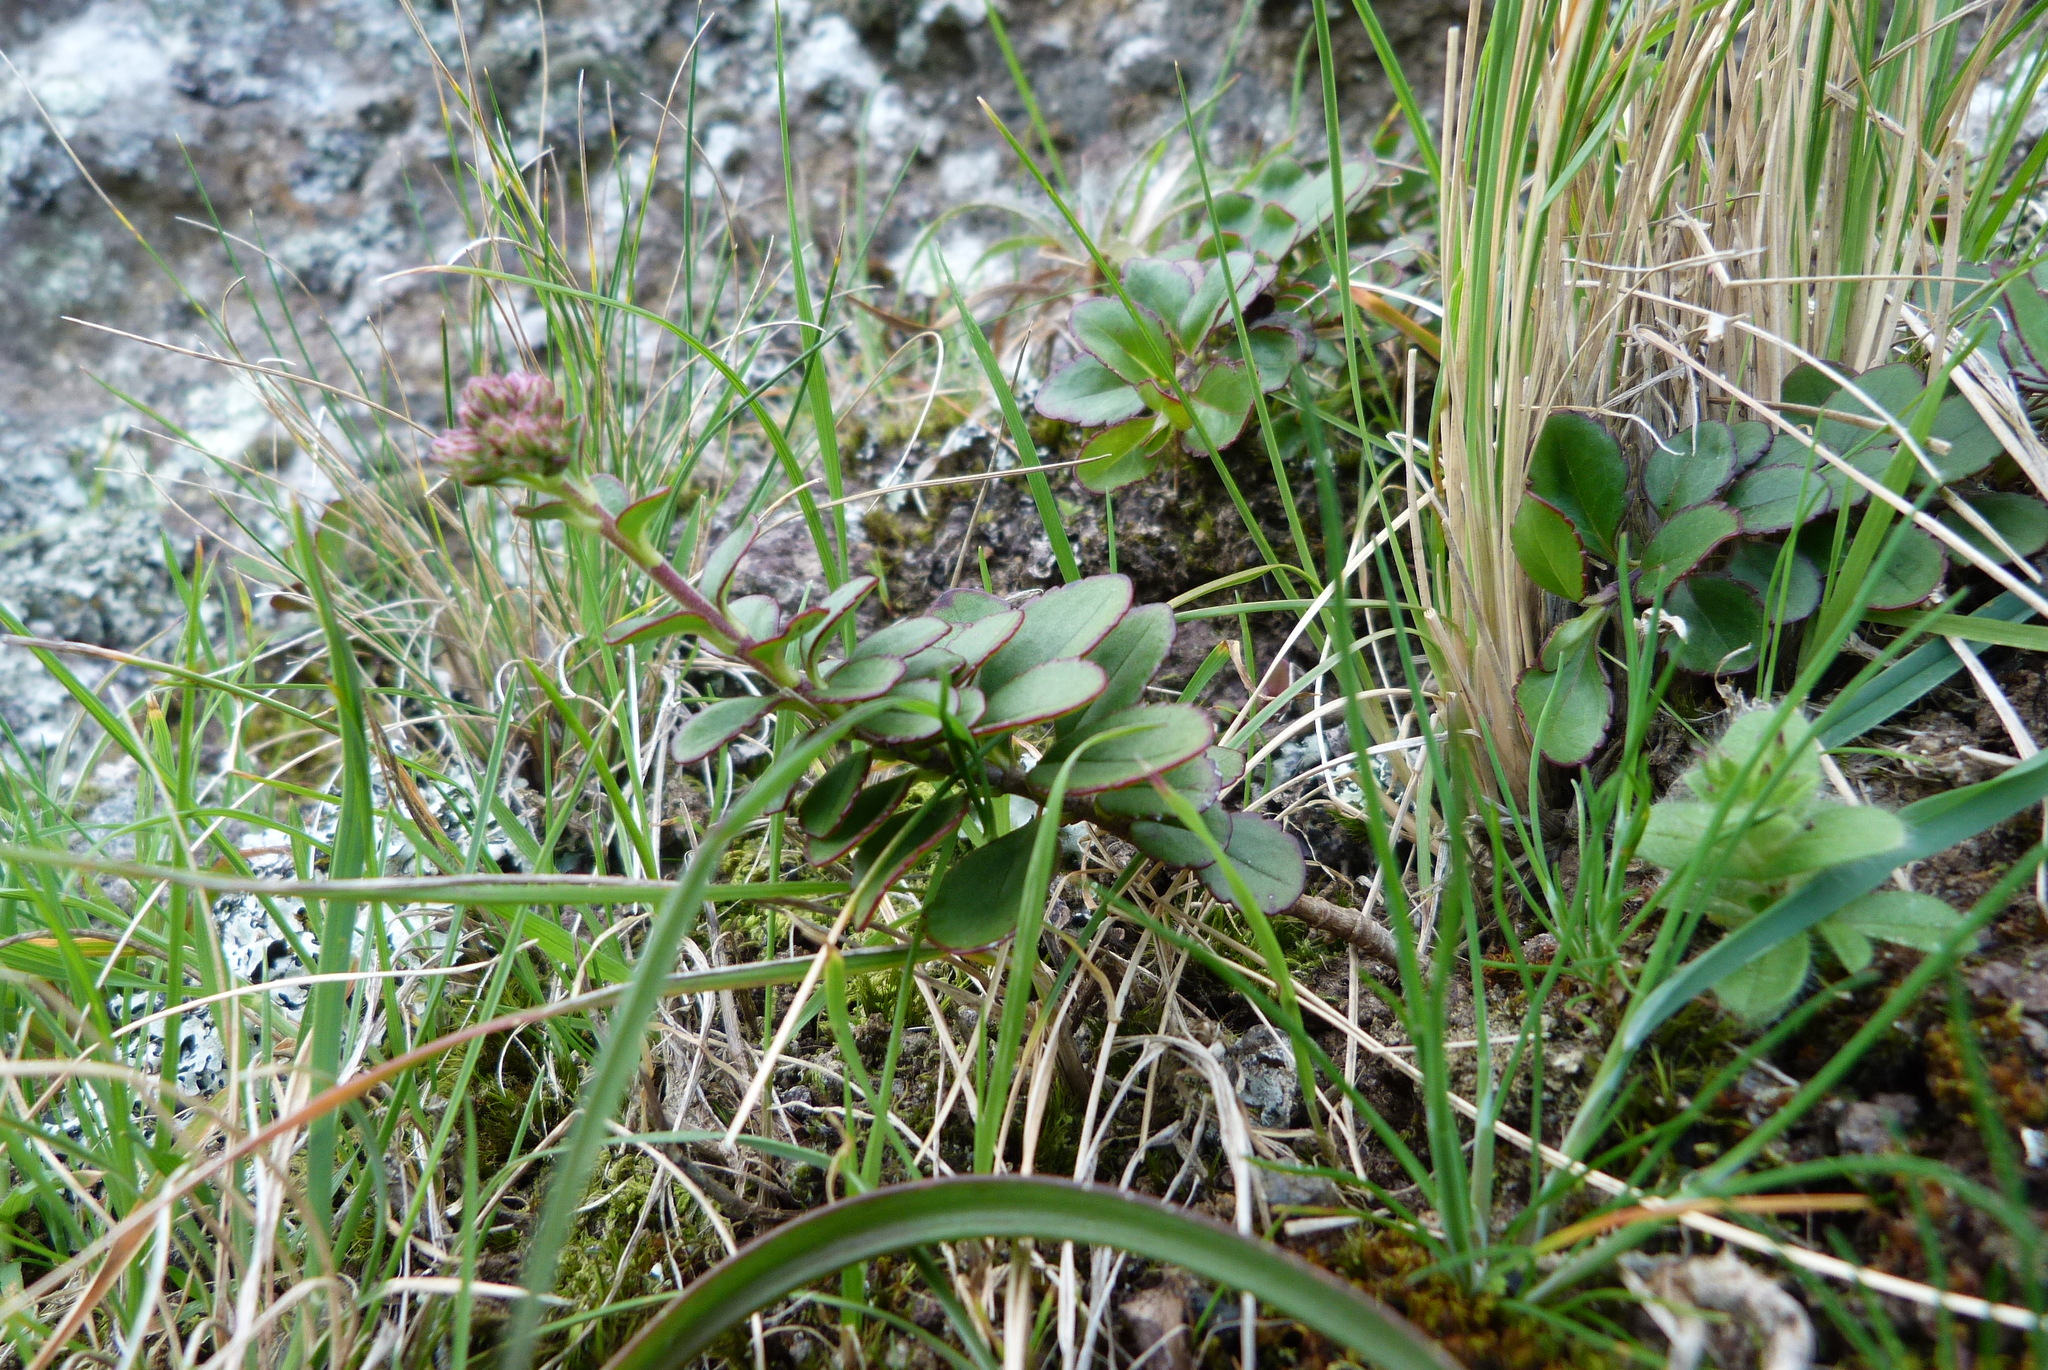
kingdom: Plantae
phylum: Tracheophyta
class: Magnoliopsida
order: Lamiales
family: Plantaginaceae
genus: Veronica
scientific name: Veronica lavaudiana
